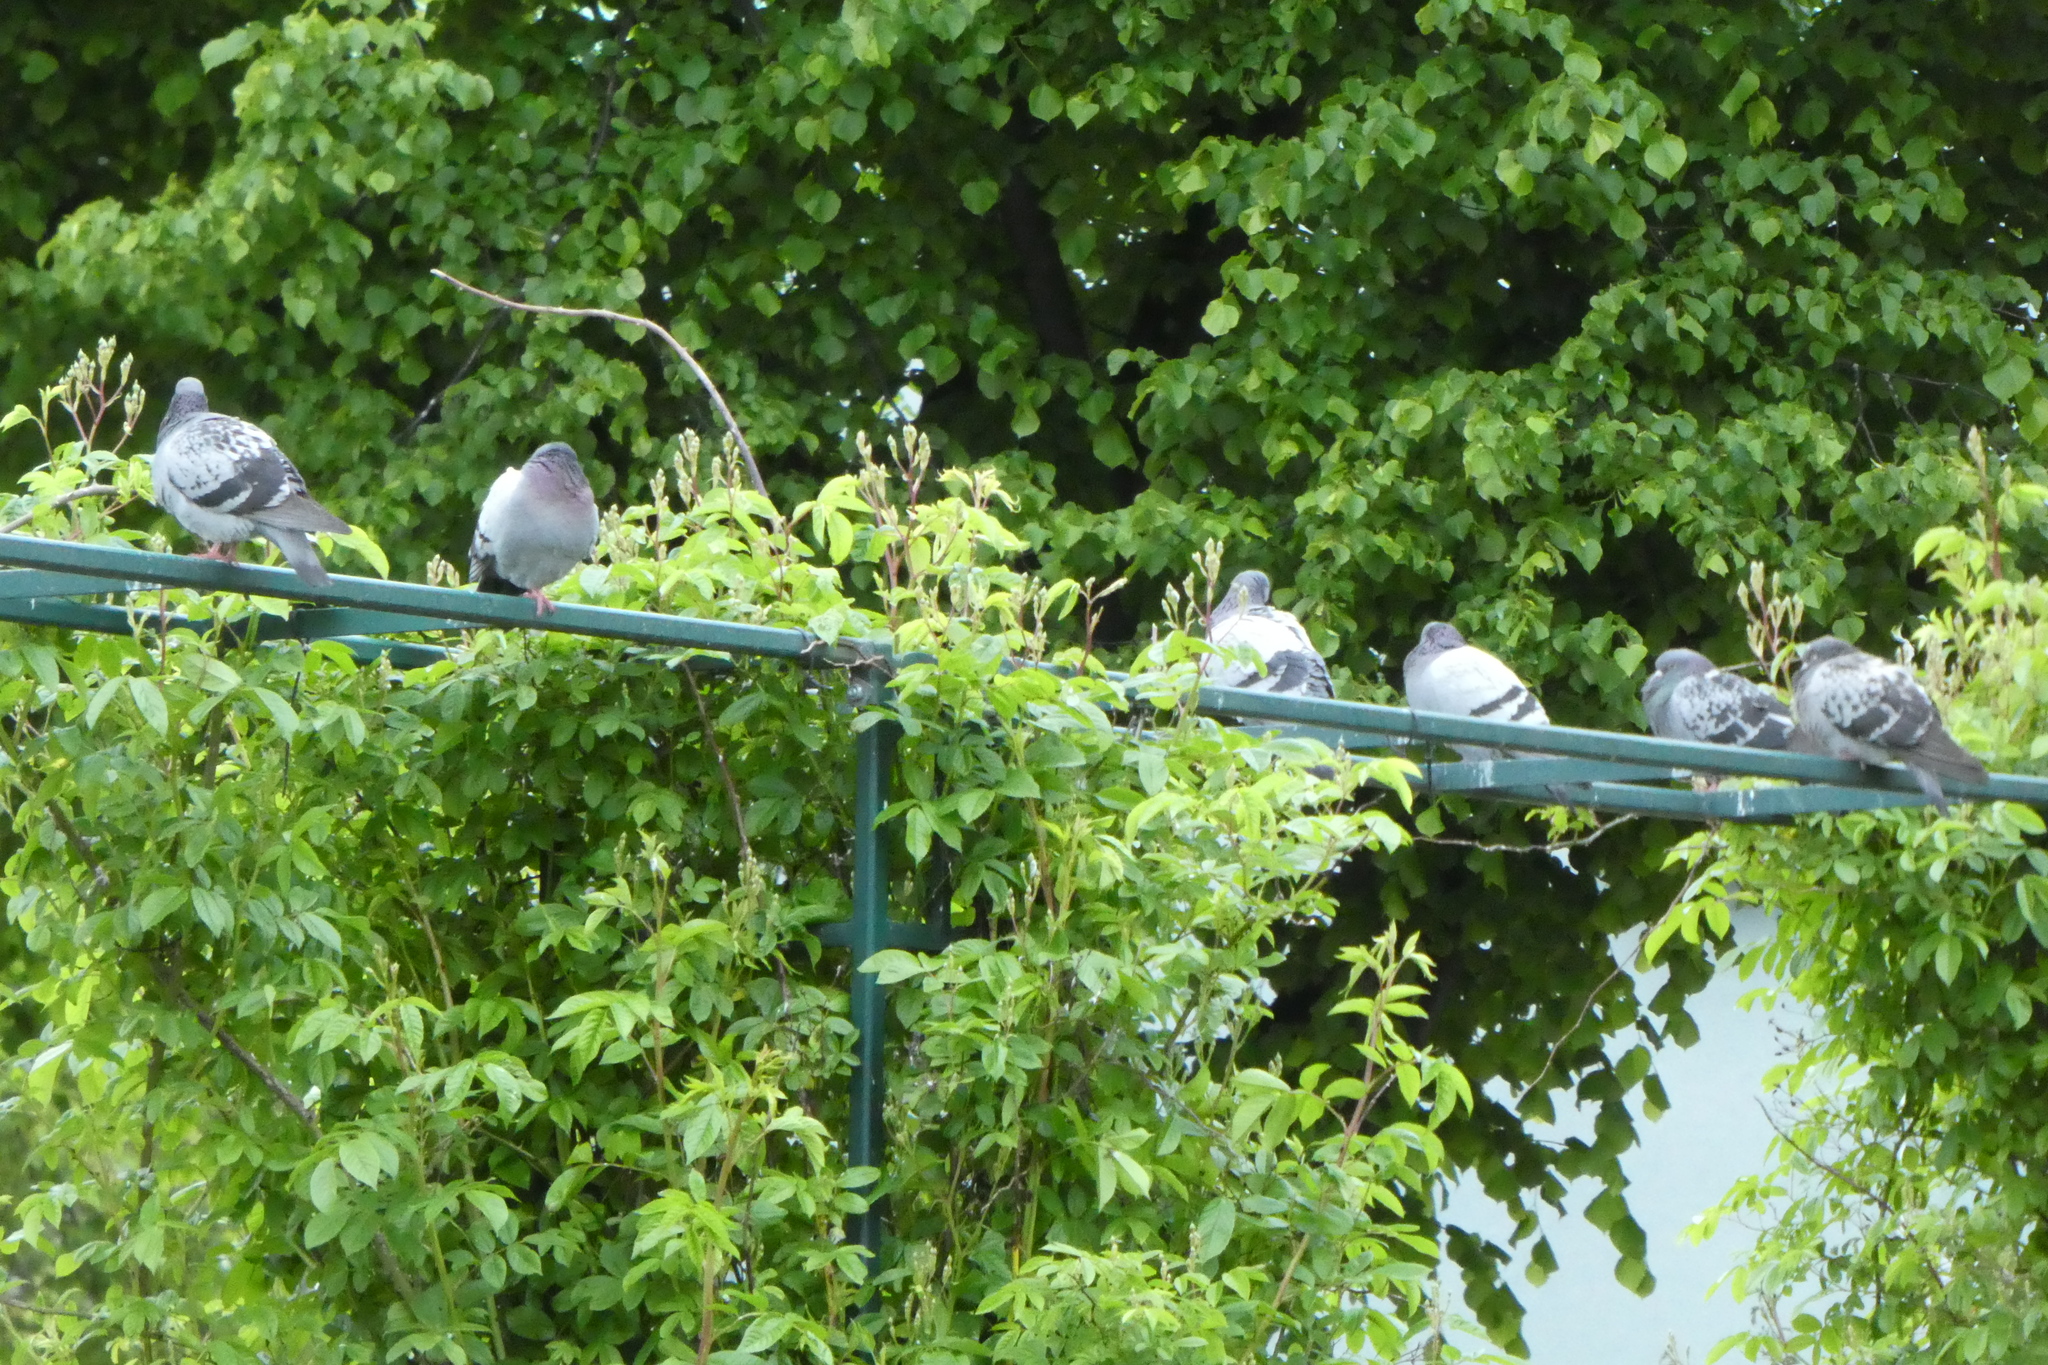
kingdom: Animalia
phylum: Chordata
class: Aves
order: Columbiformes
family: Columbidae
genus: Columba
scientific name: Columba livia
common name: Rock pigeon
